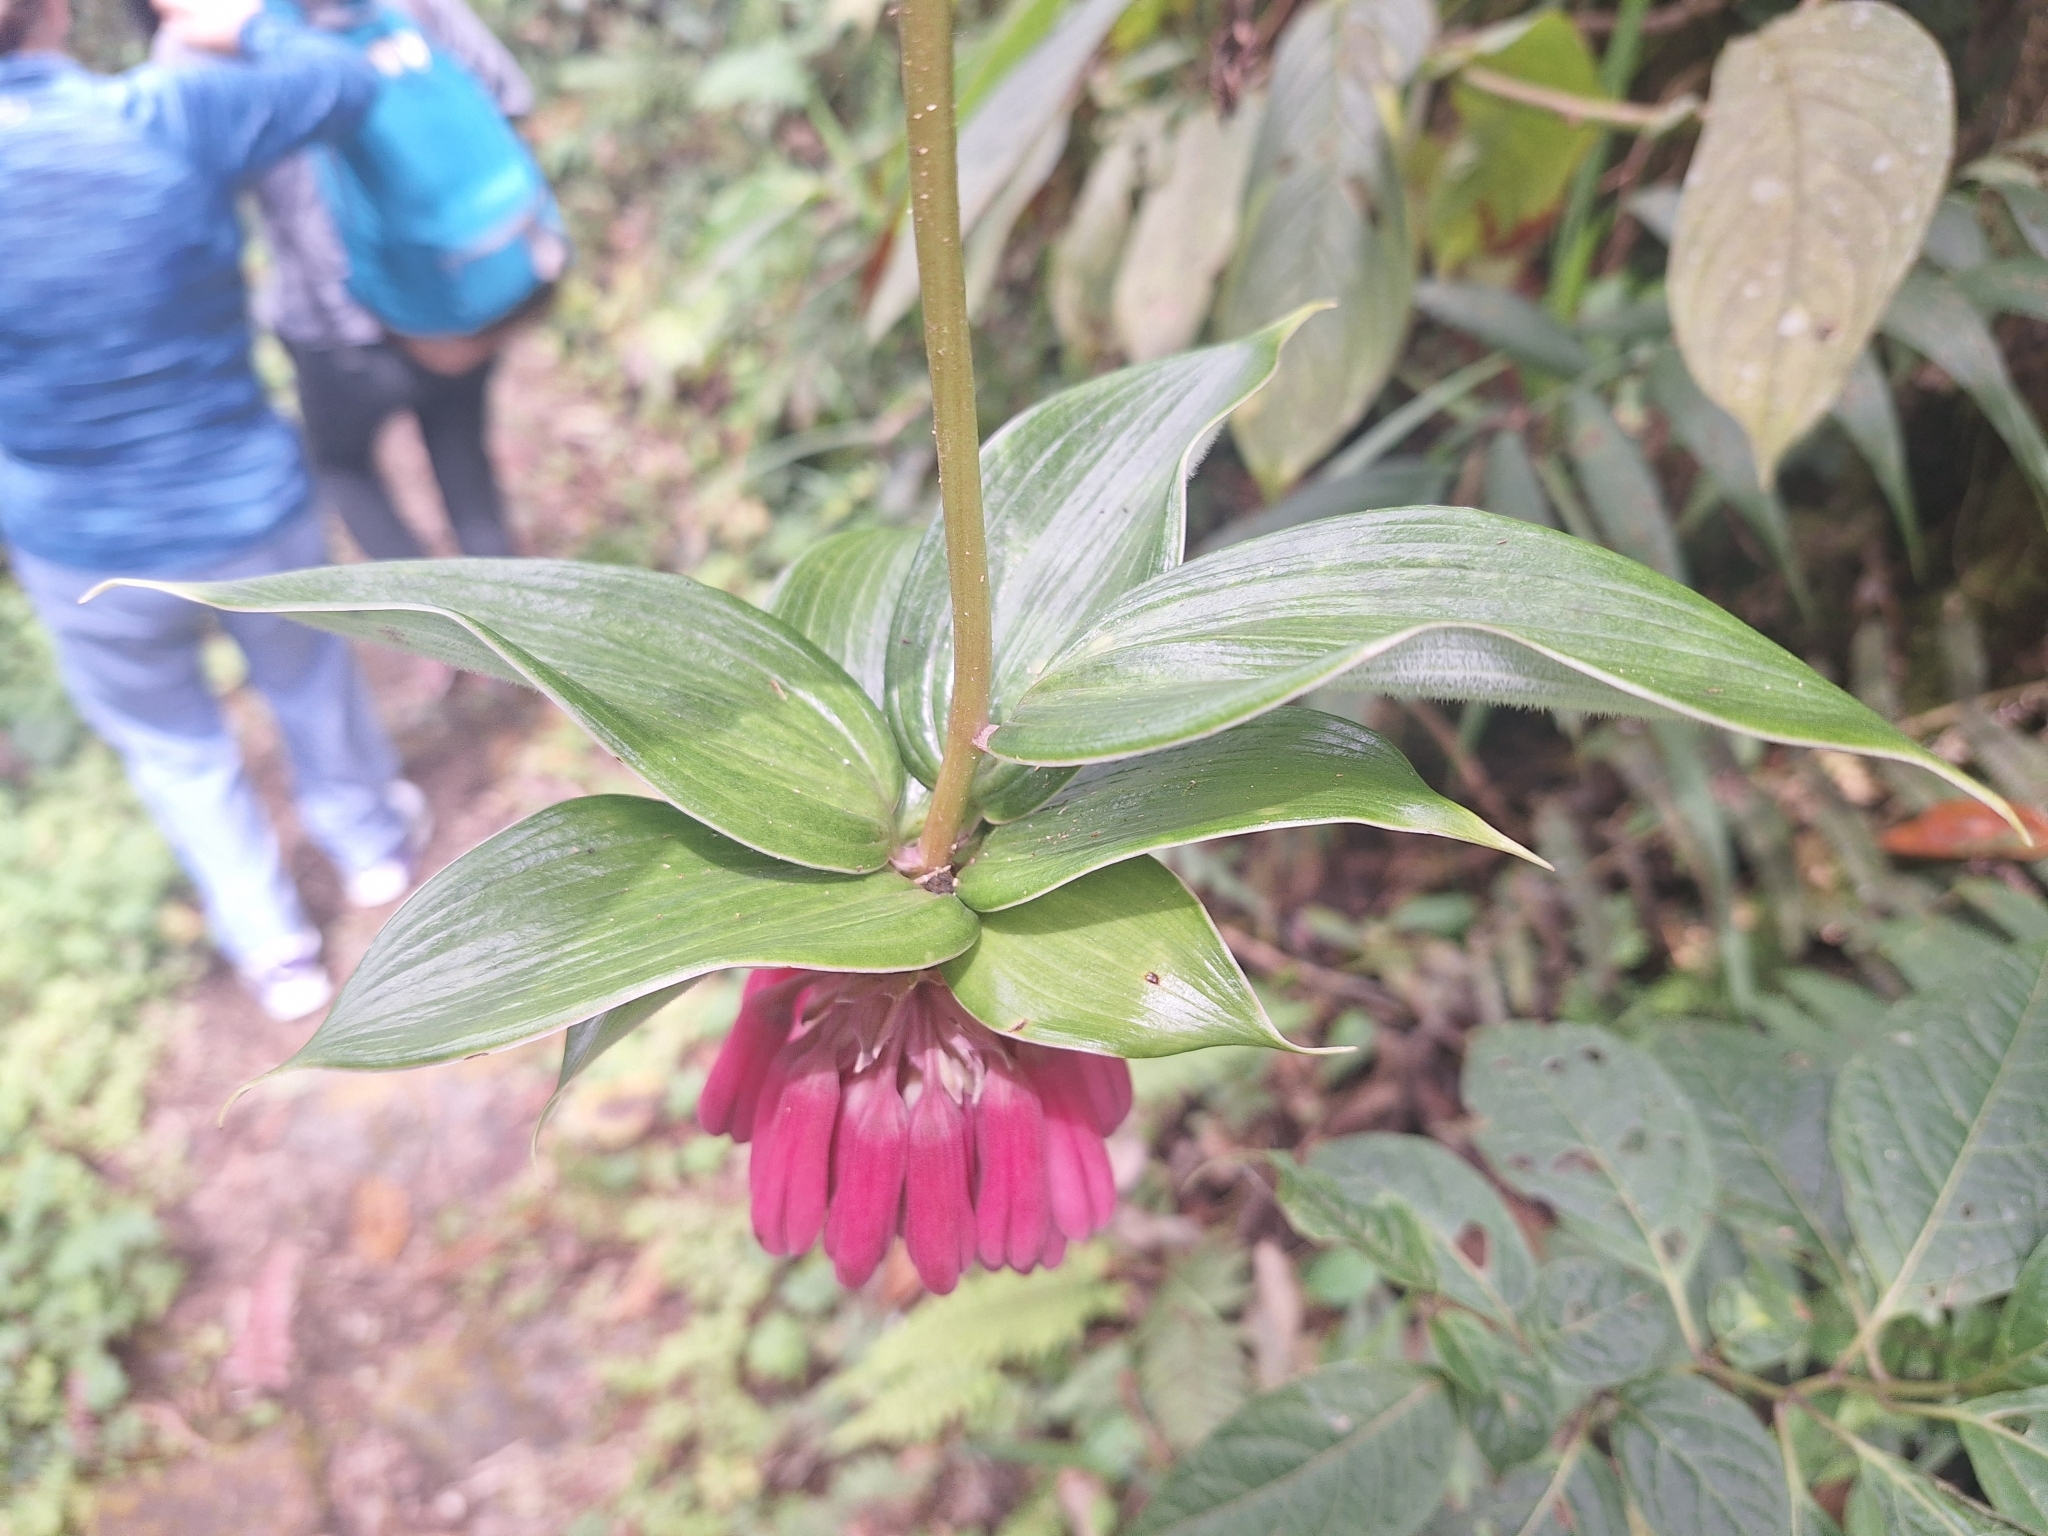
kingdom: Plantae
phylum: Tracheophyta
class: Liliopsida
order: Liliales
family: Alstroemeriaceae
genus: Bomarea
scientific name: Bomarea pardina
